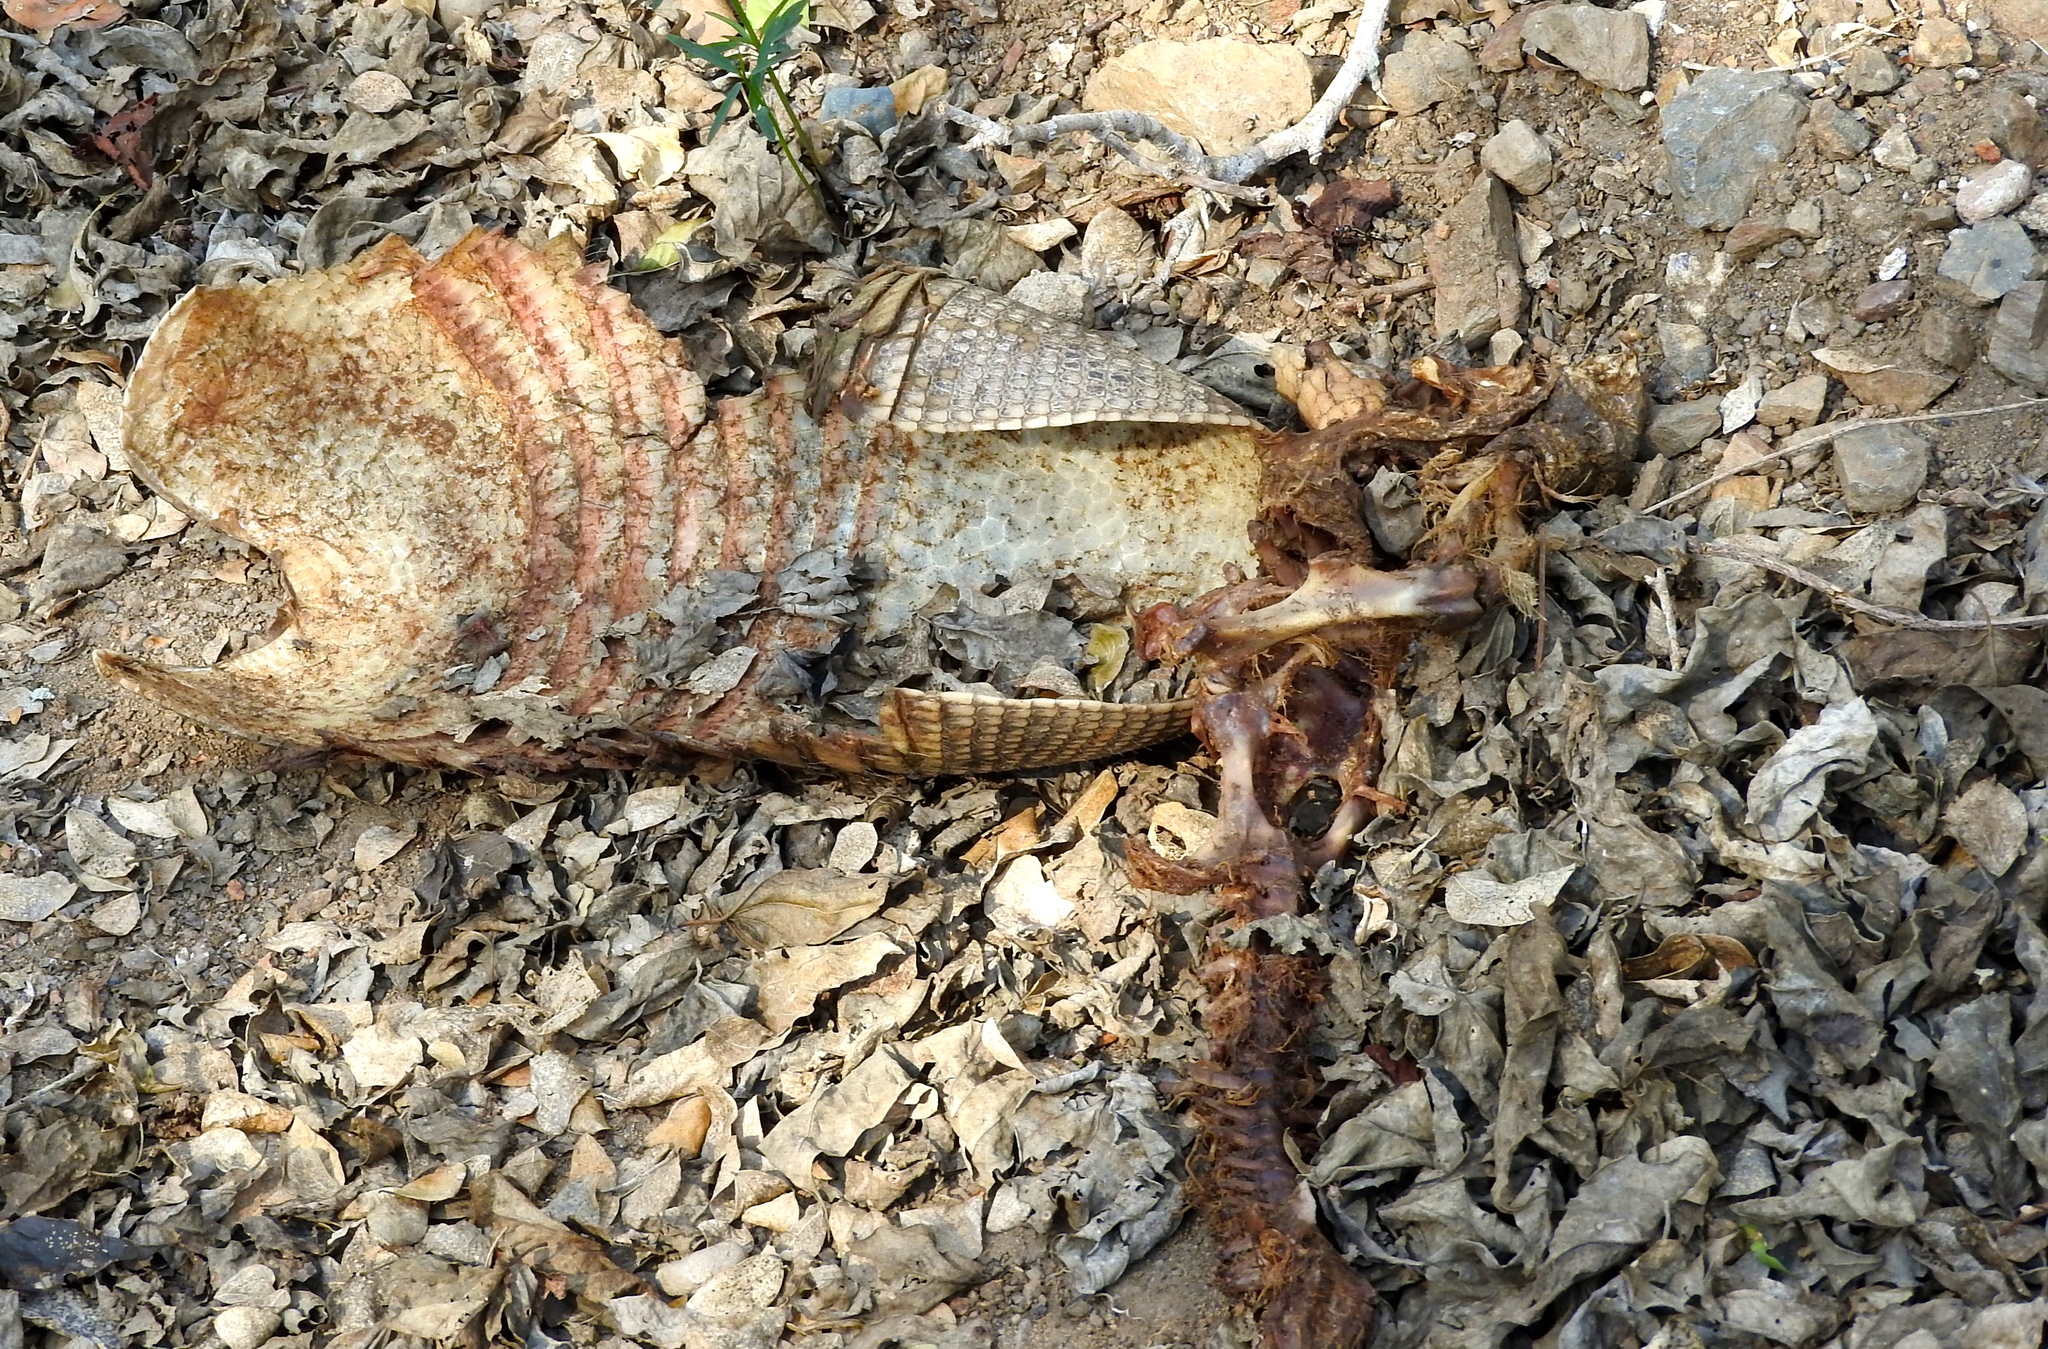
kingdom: Animalia
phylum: Chordata
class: Mammalia
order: Cingulata
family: Dasypodidae
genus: Dasypus
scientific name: Dasypus novemcinctus
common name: Nine-banded armadillo
